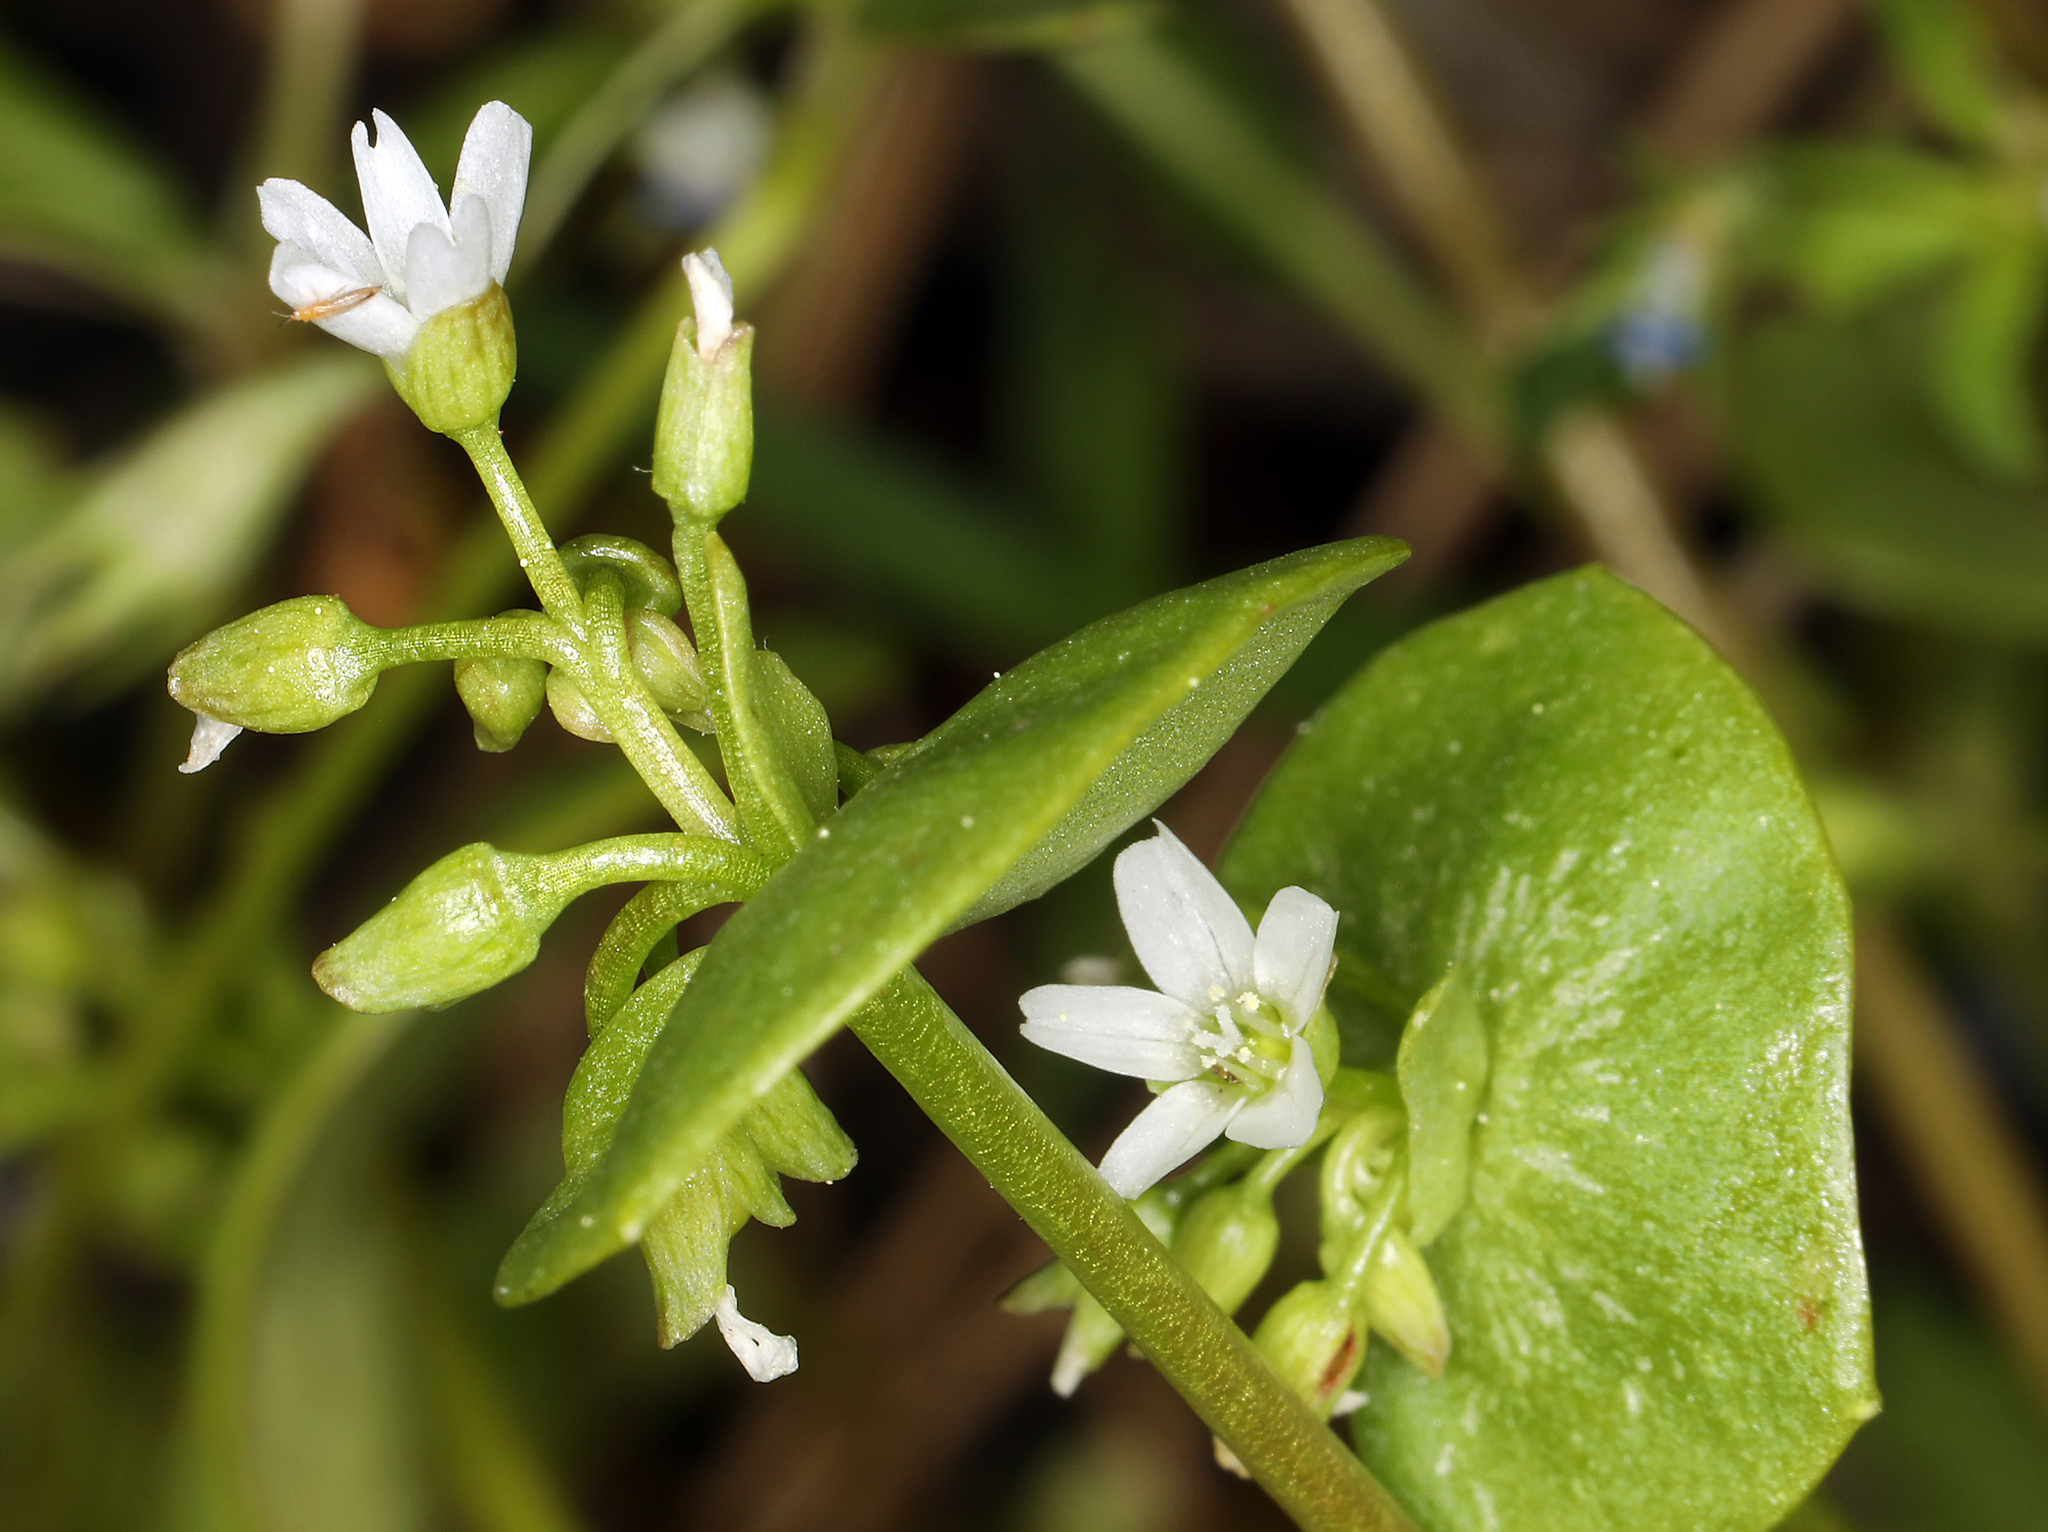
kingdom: Plantae
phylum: Tracheophyta
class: Magnoliopsida
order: Caryophyllales
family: Montiaceae
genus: Claytonia
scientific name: Claytonia rubra
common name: Erubescent miner's-lettuce
